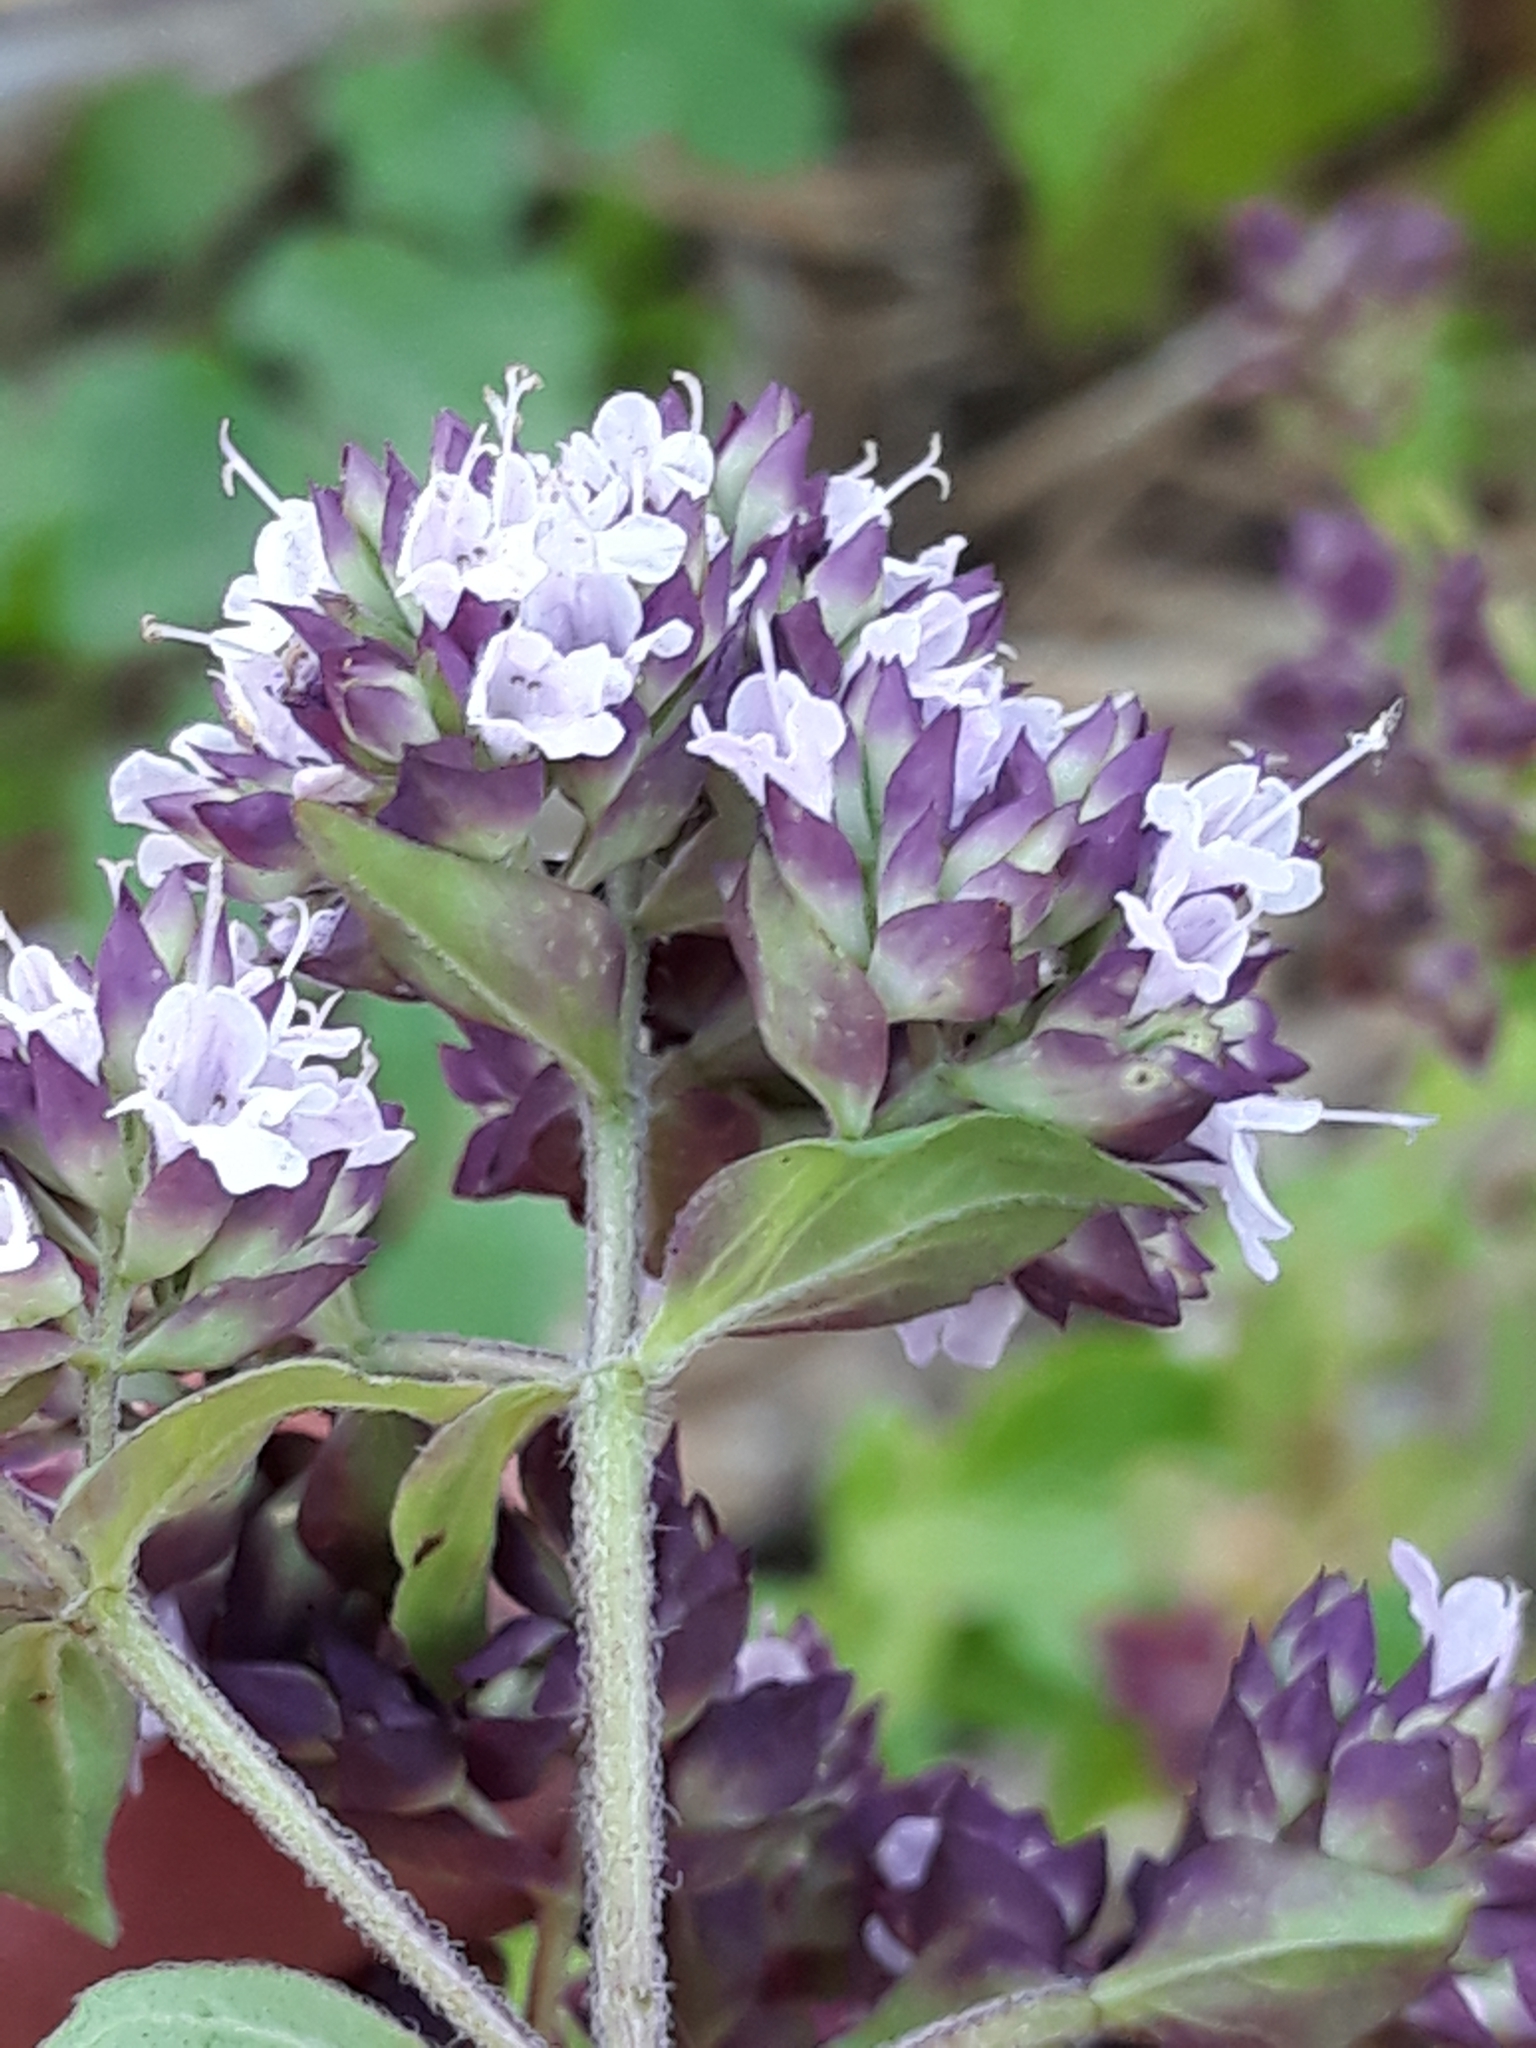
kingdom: Plantae
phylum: Tracheophyta
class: Magnoliopsida
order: Lamiales
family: Lamiaceae
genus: Origanum
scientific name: Origanum vulgare
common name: Wild marjoram
